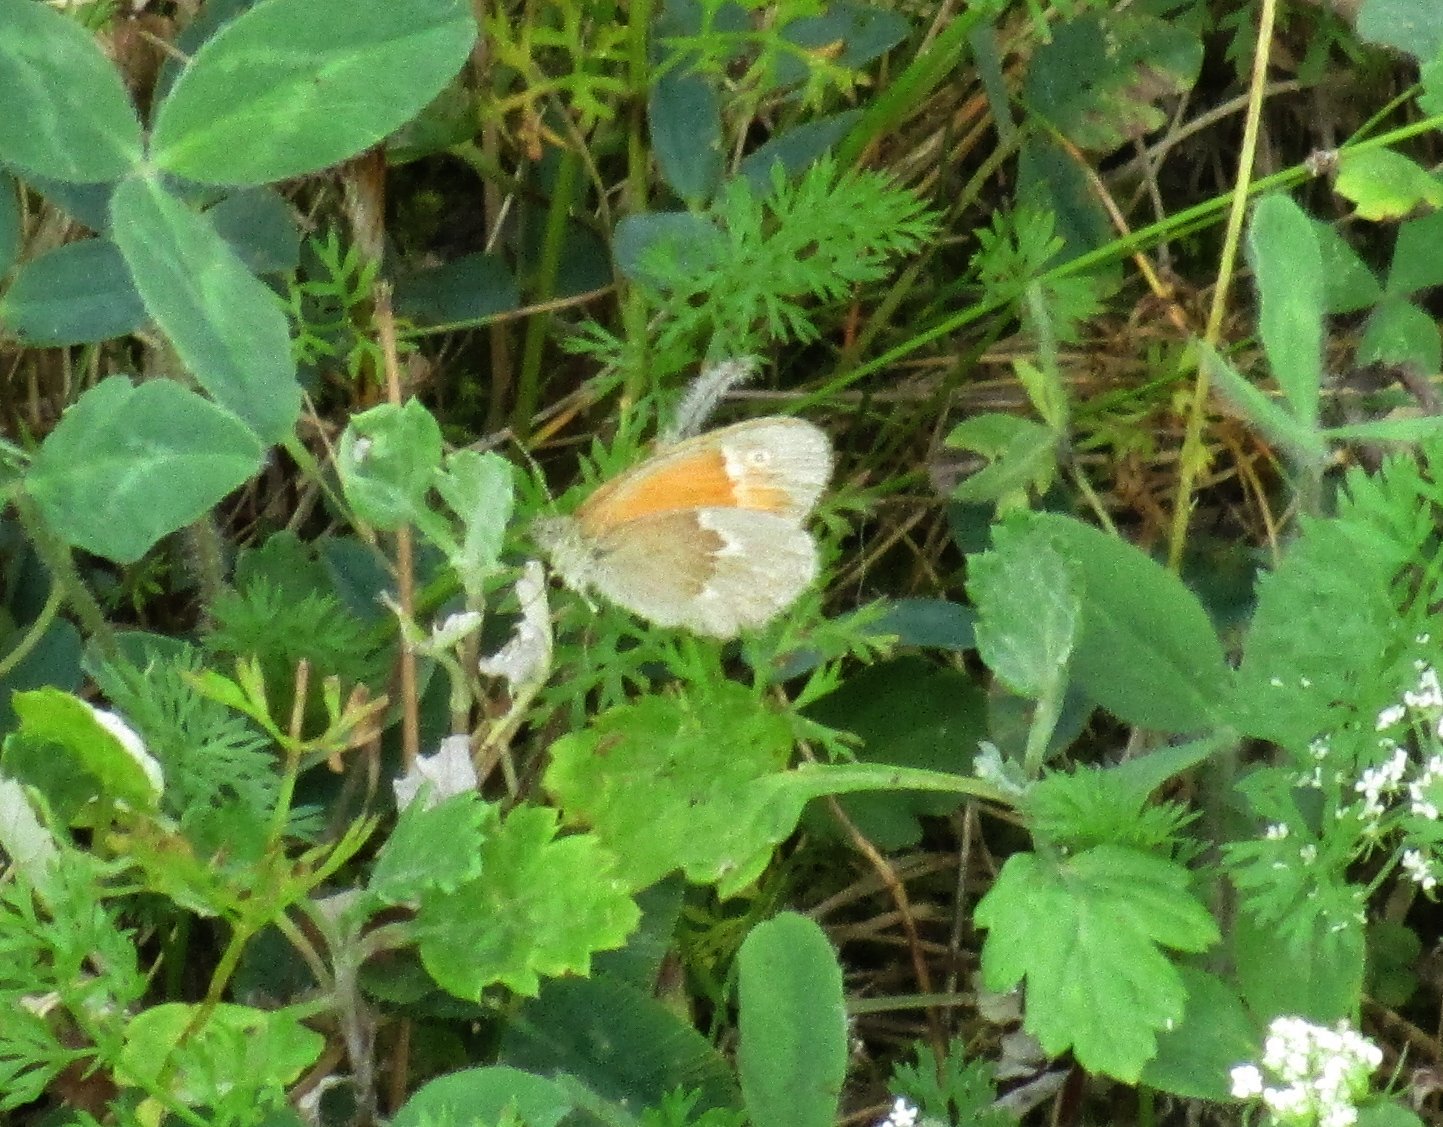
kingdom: Animalia
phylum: Arthropoda
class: Insecta
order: Lepidoptera
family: Nymphalidae
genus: Coenonympha
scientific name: Coenonympha california
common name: Common ringlet
